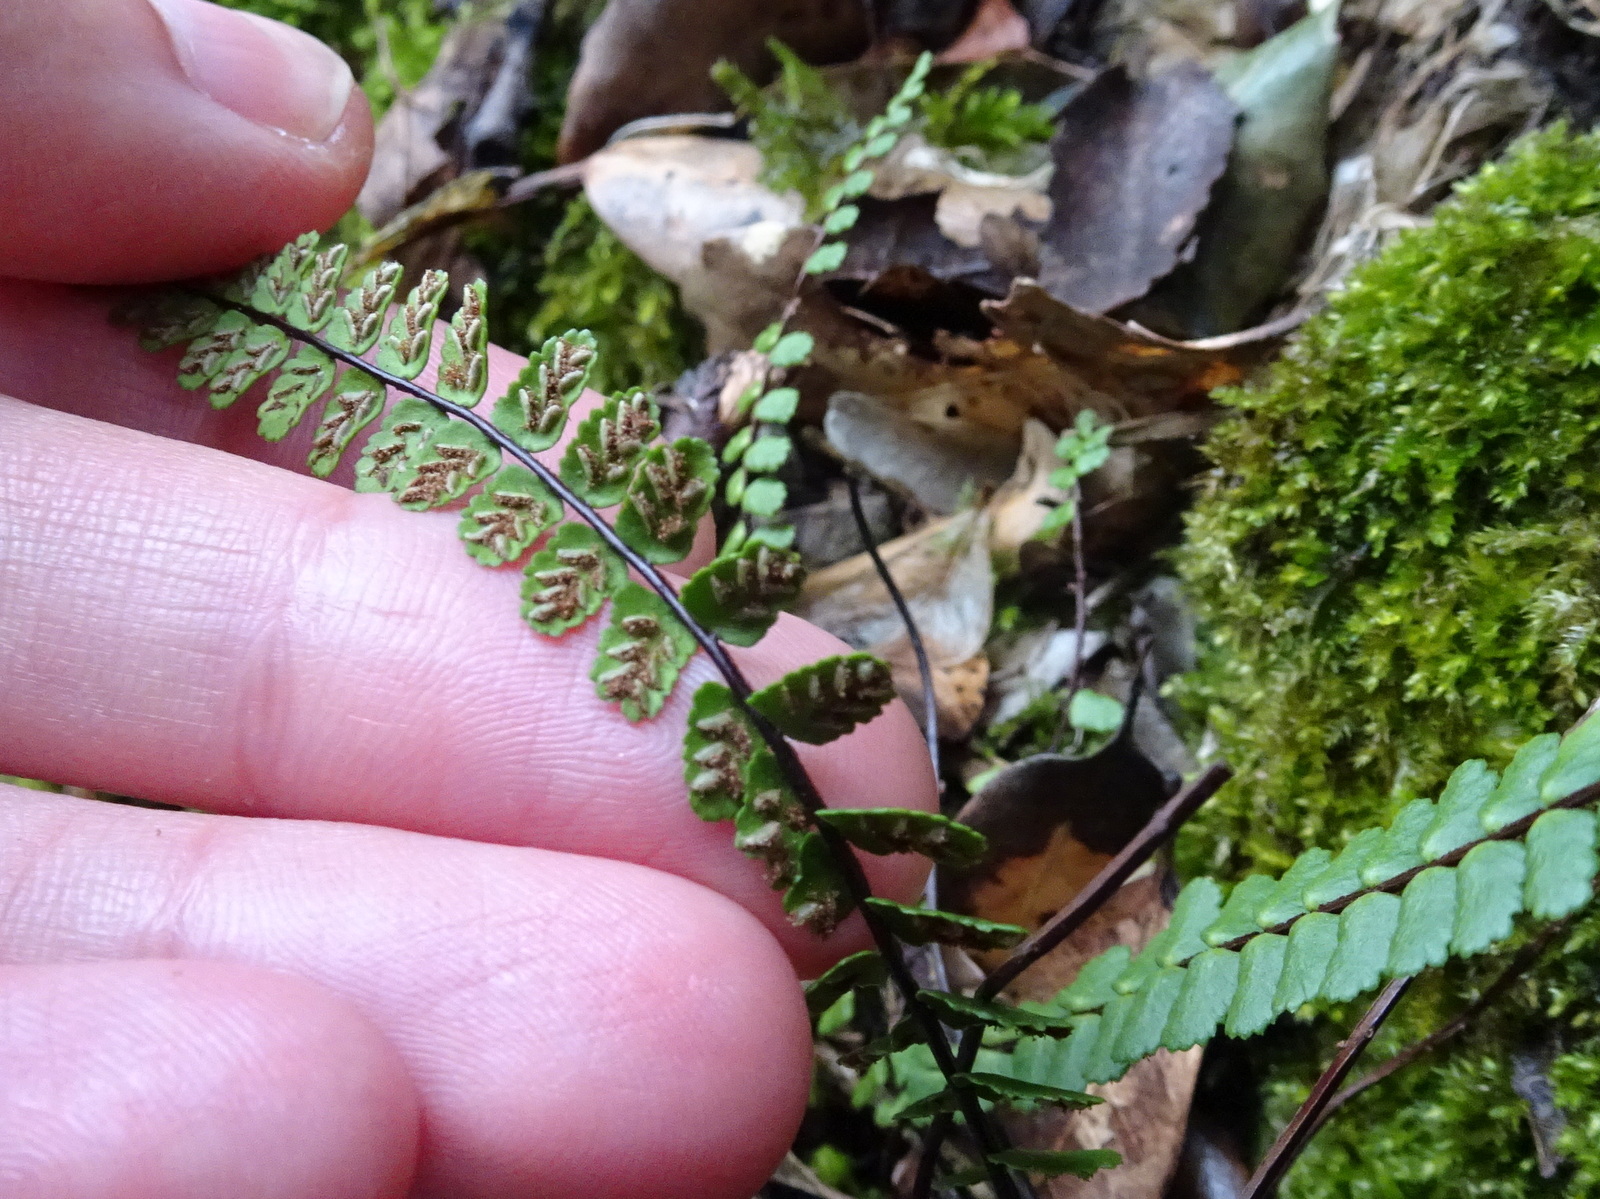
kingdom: Plantae
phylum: Tracheophyta
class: Polypodiopsida
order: Polypodiales
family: Aspleniaceae
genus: Asplenium
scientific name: Asplenium trichomanes
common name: Maidenhair spleenwort
